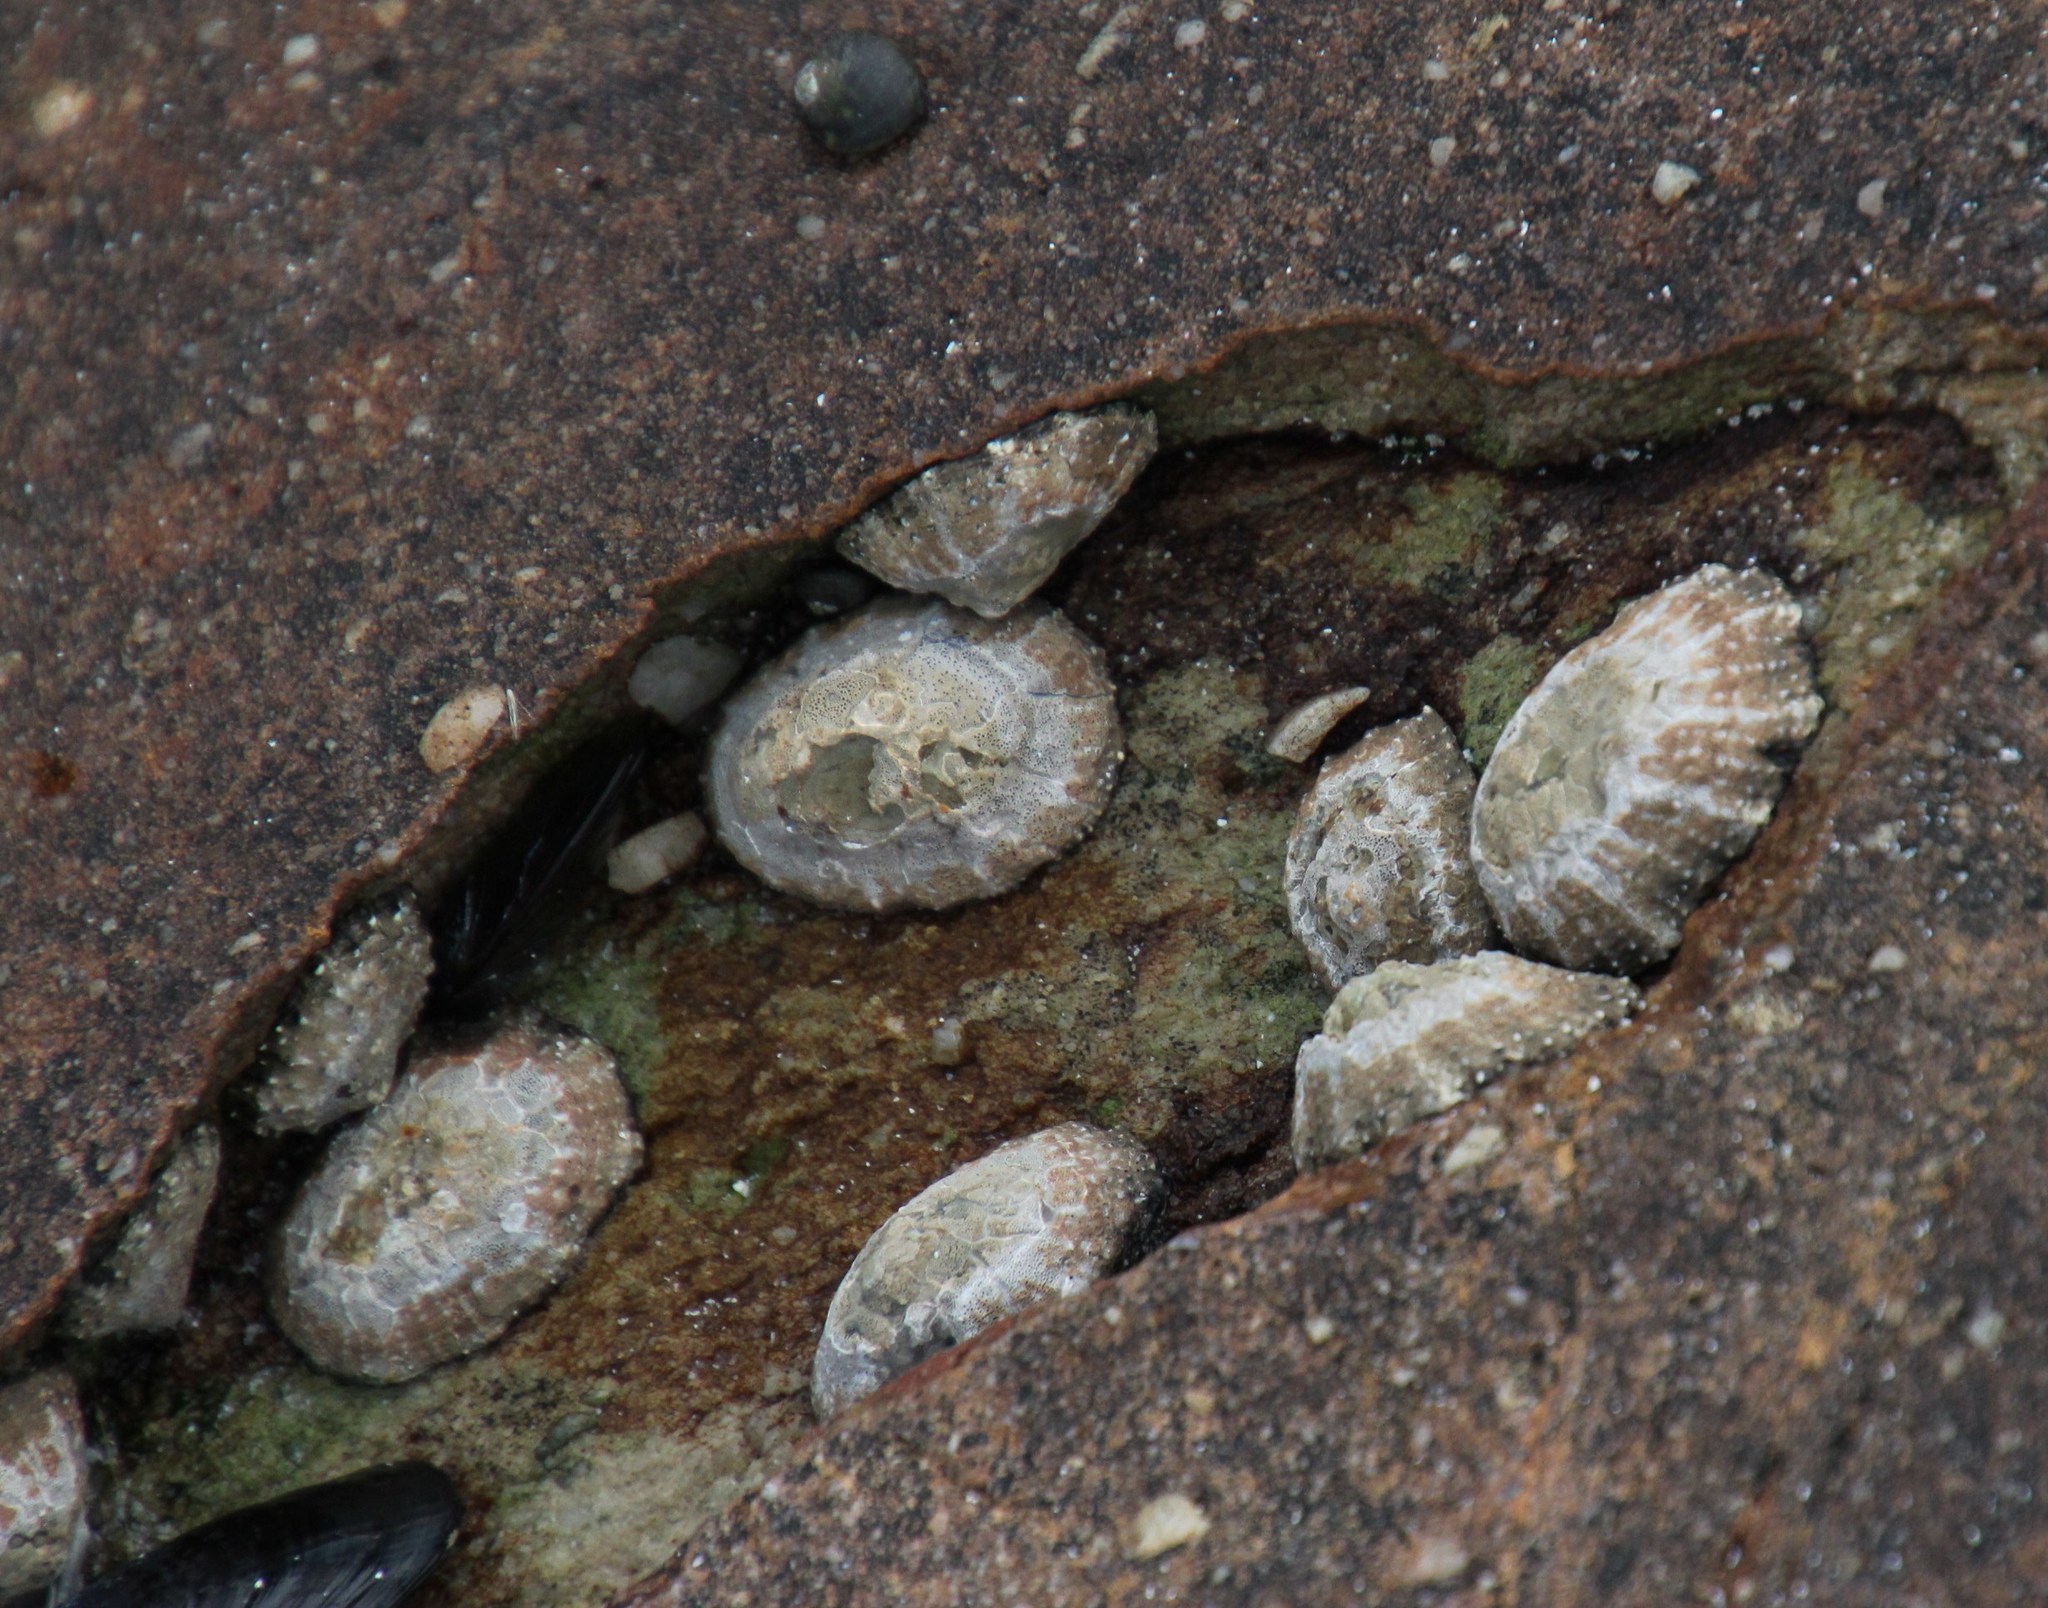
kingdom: Animalia
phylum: Mollusca
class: Gastropoda
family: Patellidae
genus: Scutellastra
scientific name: Scutellastra granularis
